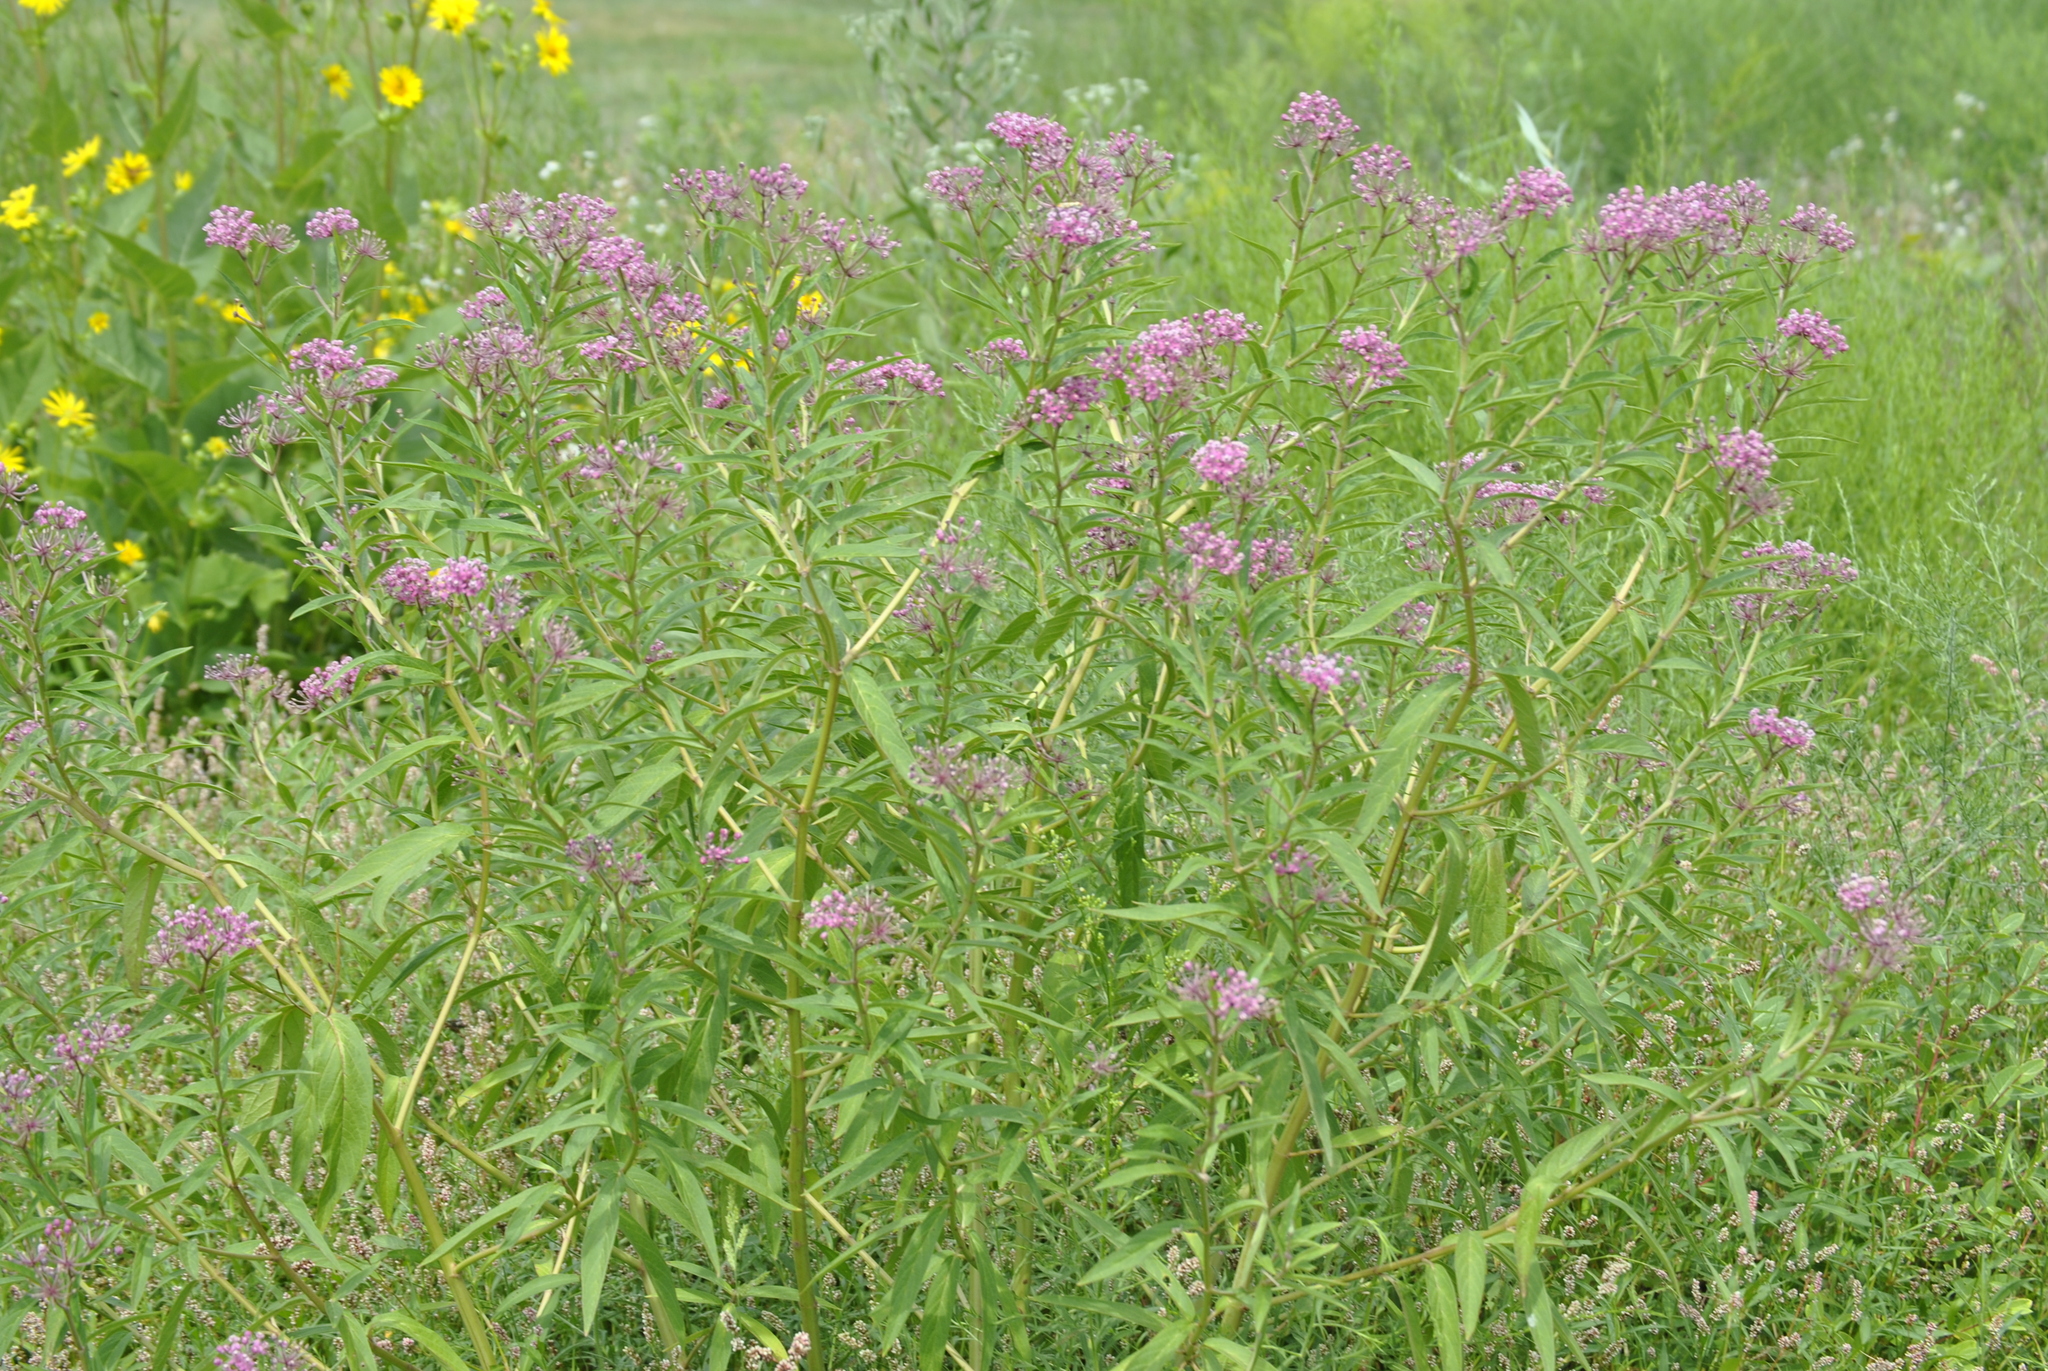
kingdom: Plantae
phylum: Tracheophyta
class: Magnoliopsida
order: Gentianales
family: Apocynaceae
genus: Asclepias
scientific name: Asclepias incarnata
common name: Swamp milkweed
